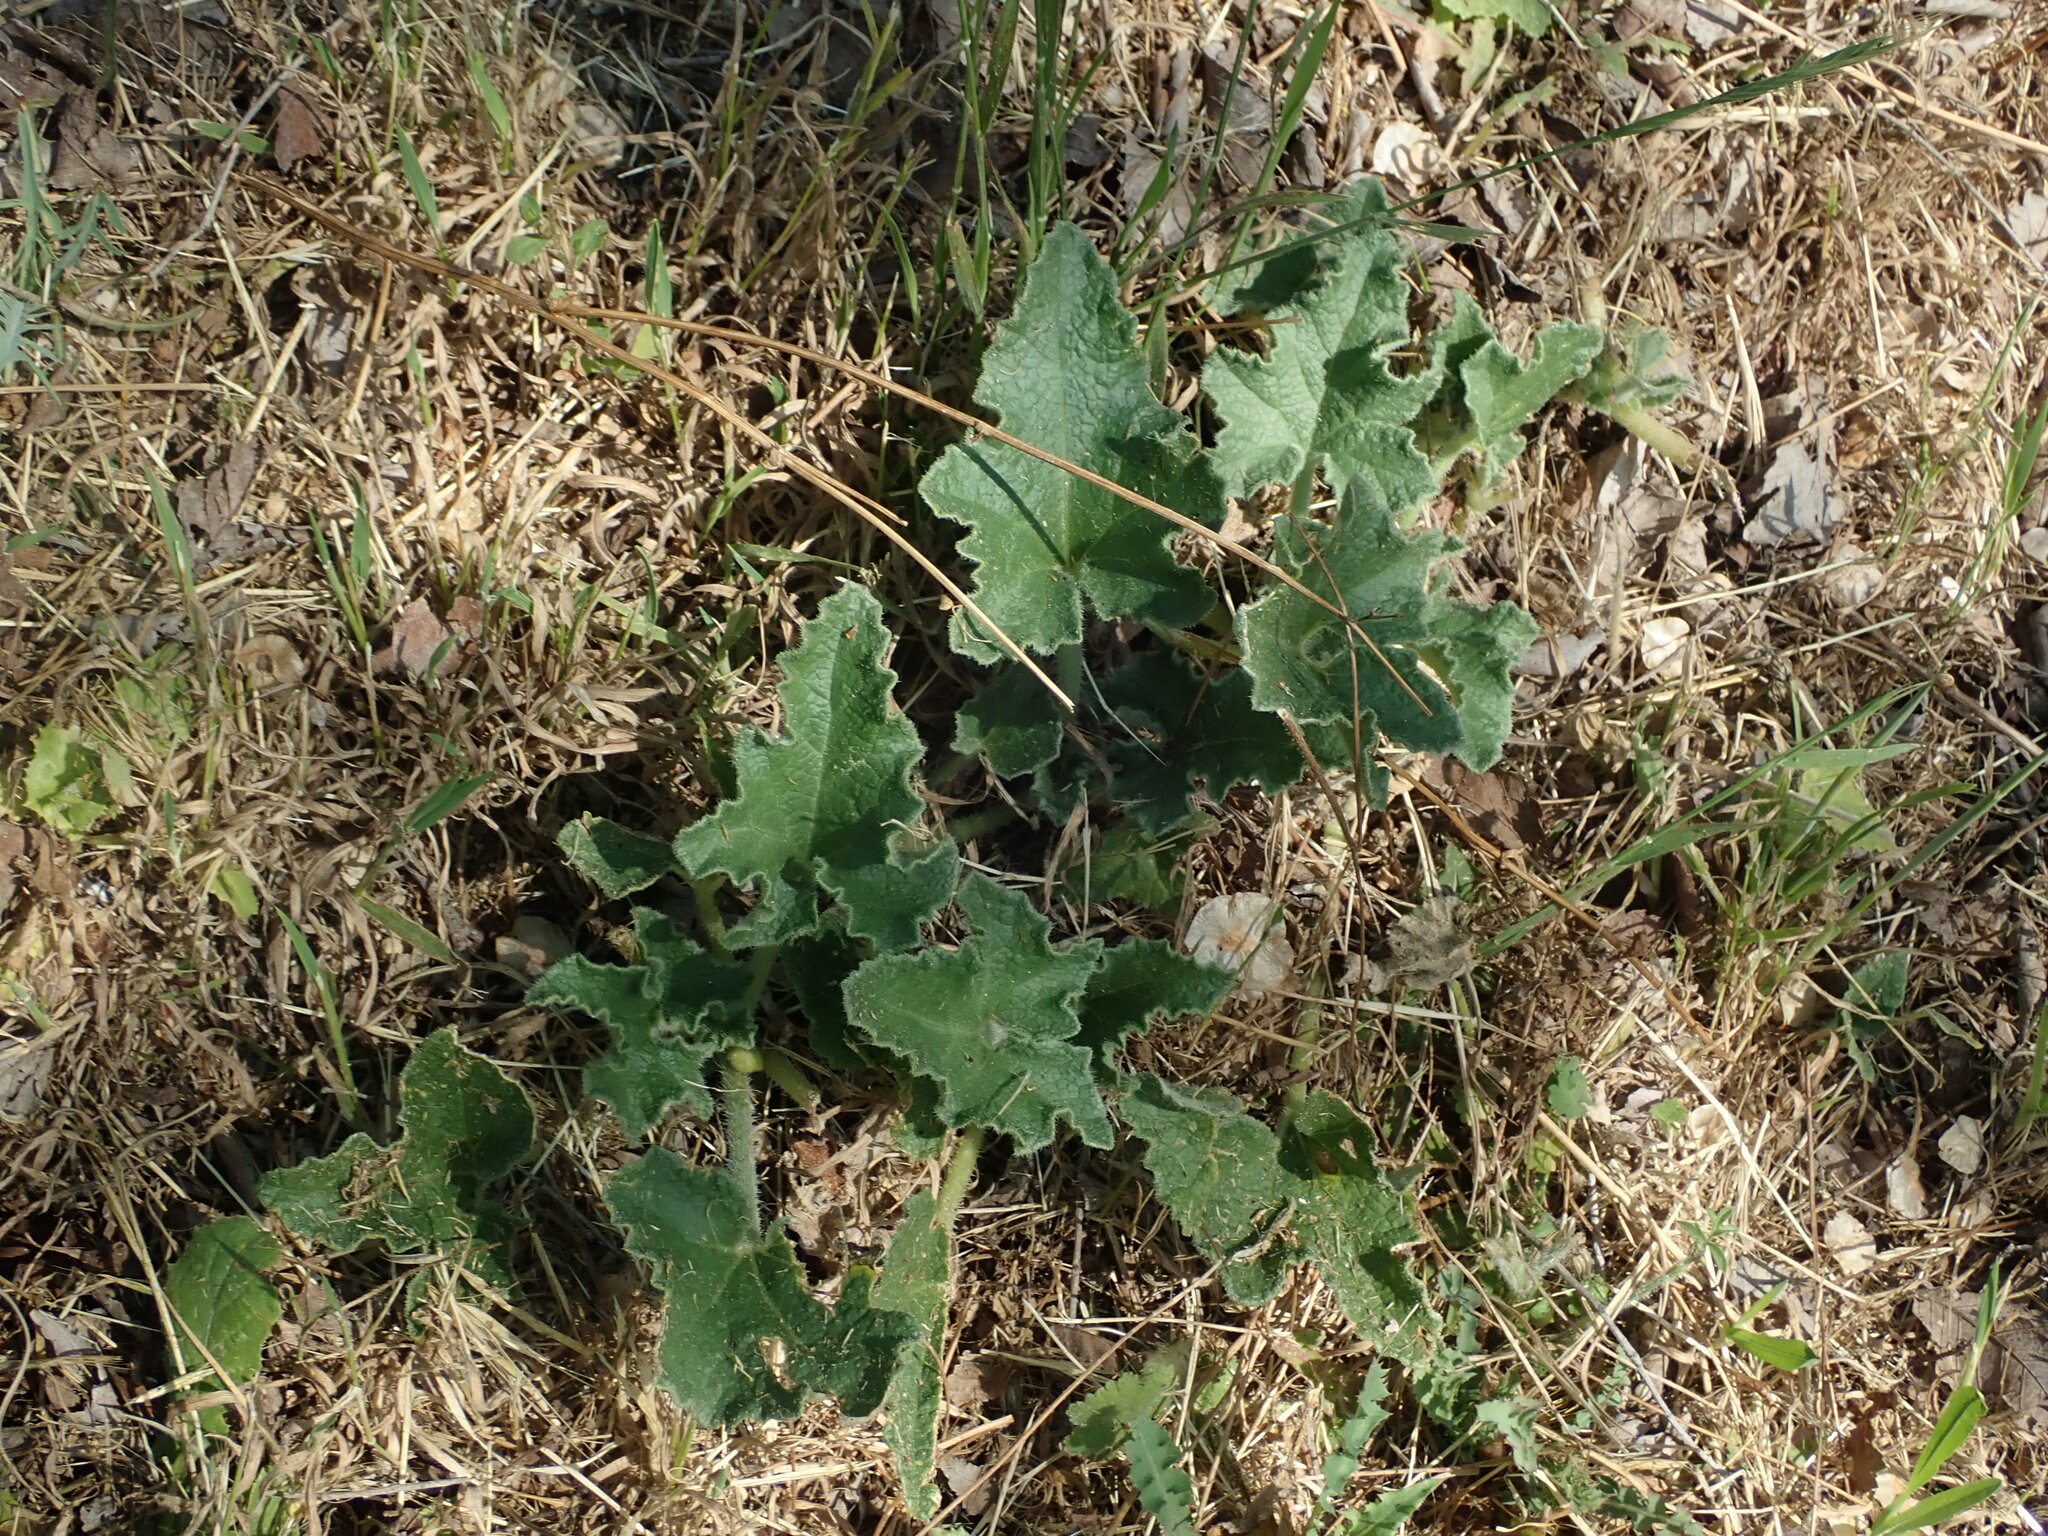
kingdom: Plantae
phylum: Tracheophyta
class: Magnoliopsida
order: Cucurbitales
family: Cucurbitaceae
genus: Ecballium
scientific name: Ecballium elaterium
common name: Squirting cucumber
